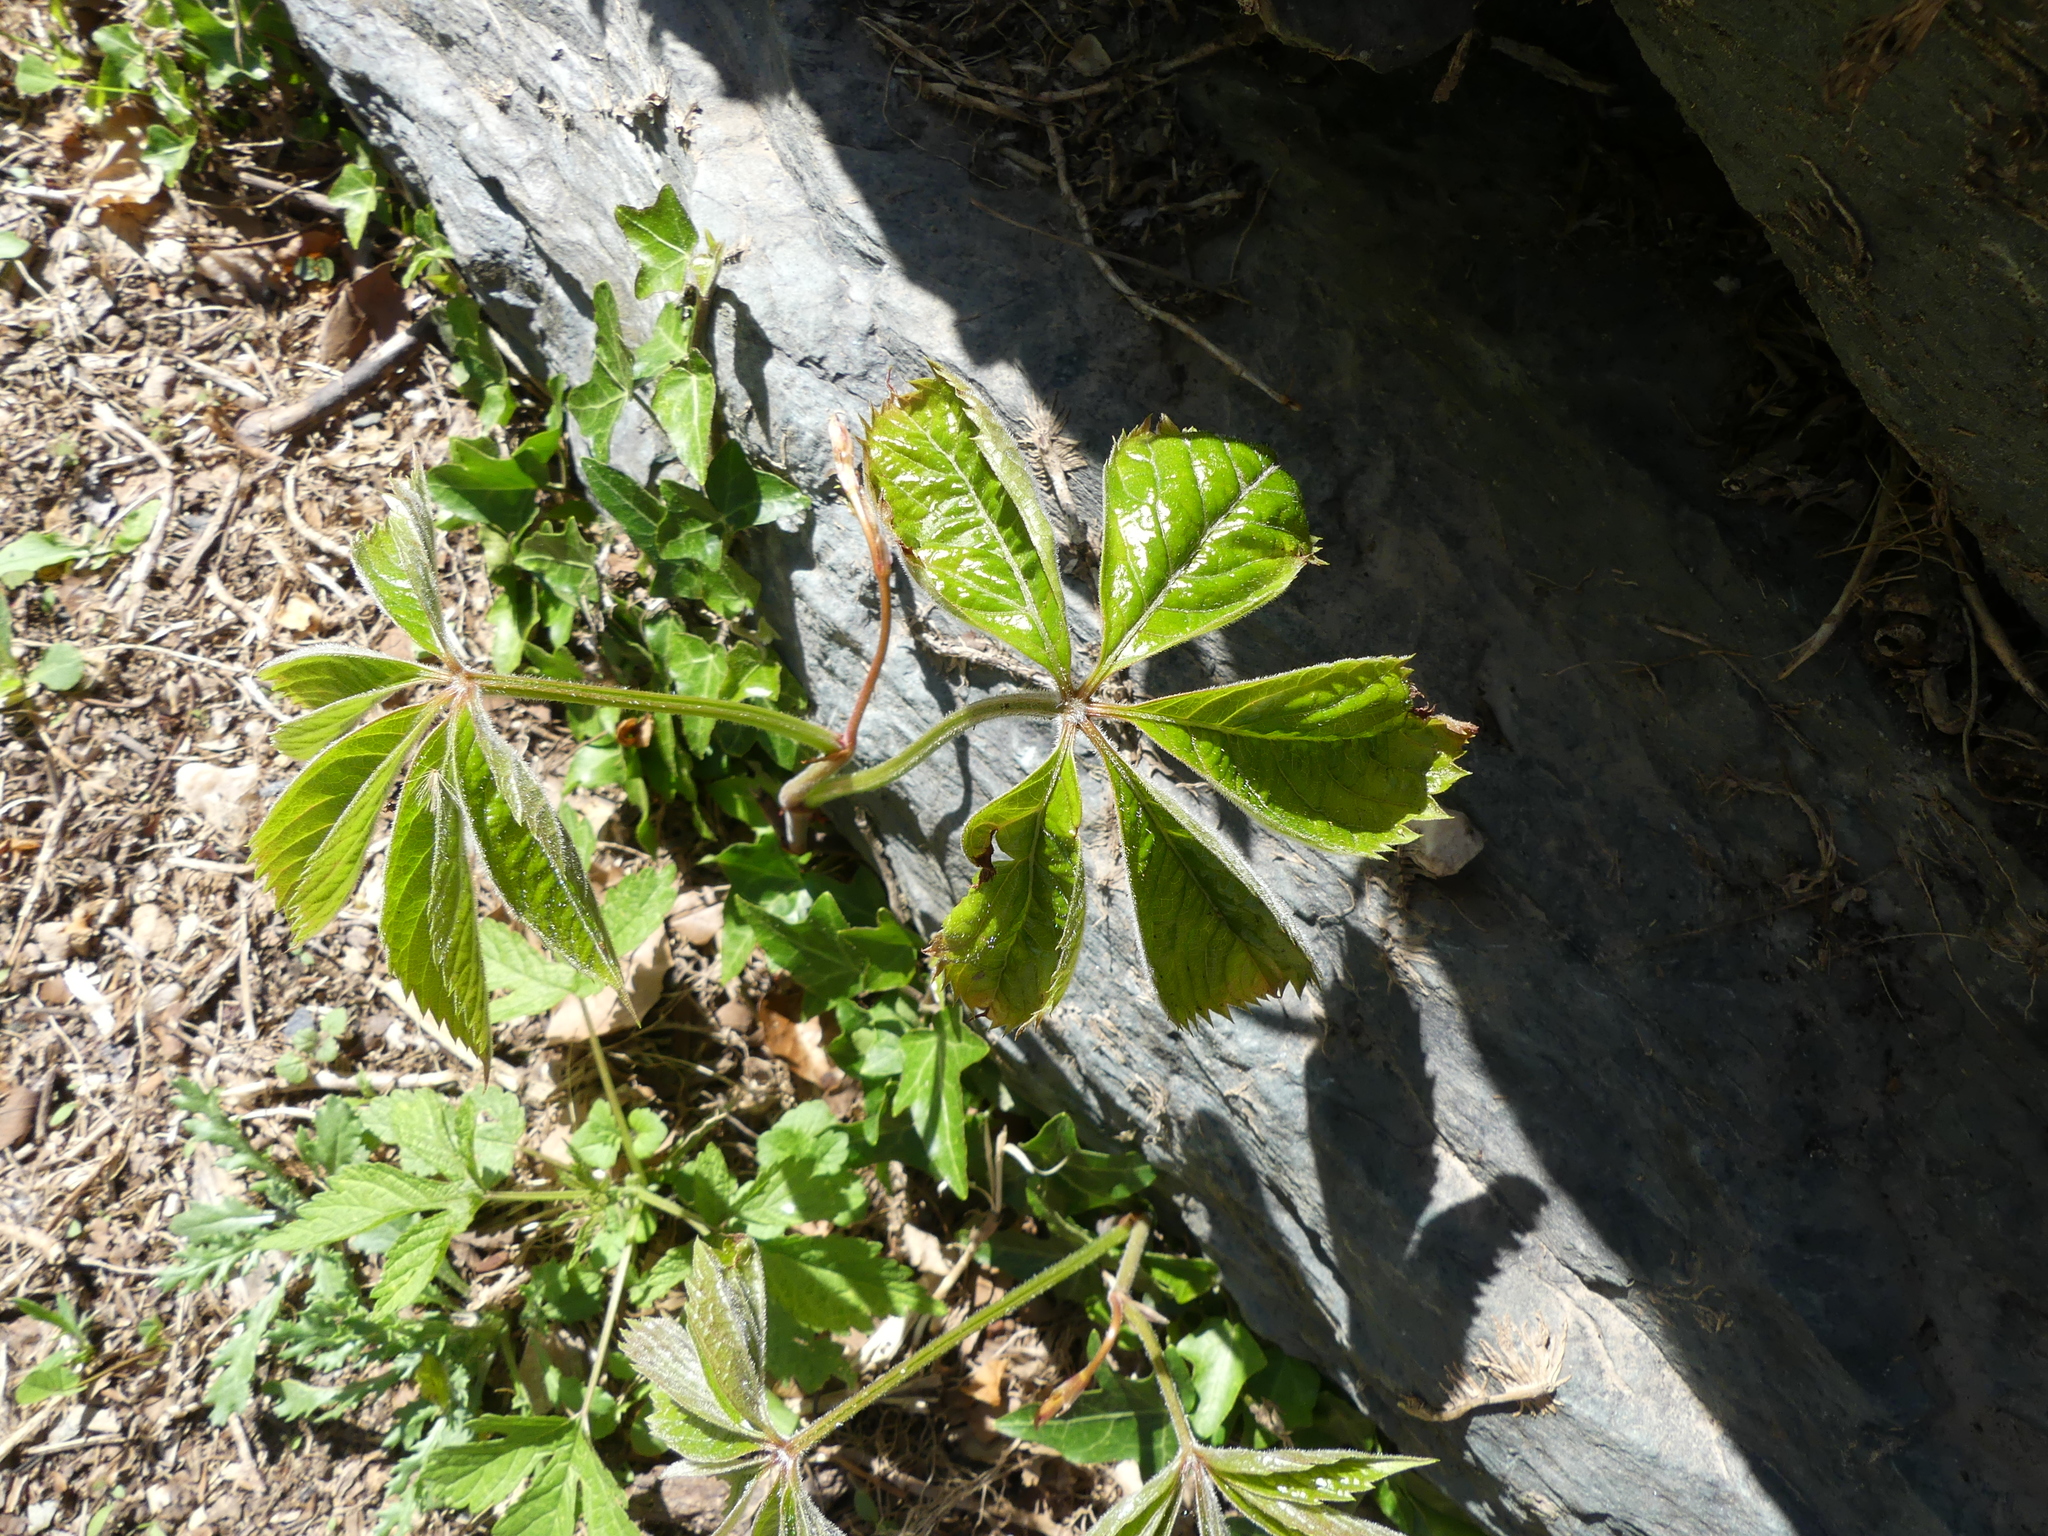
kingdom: Plantae
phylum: Tracheophyta
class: Magnoliopsida
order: Vitales
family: Vitaceae
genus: Parthenocissus
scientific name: Parthenocissus quinquefolia
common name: Virginia-creeper
